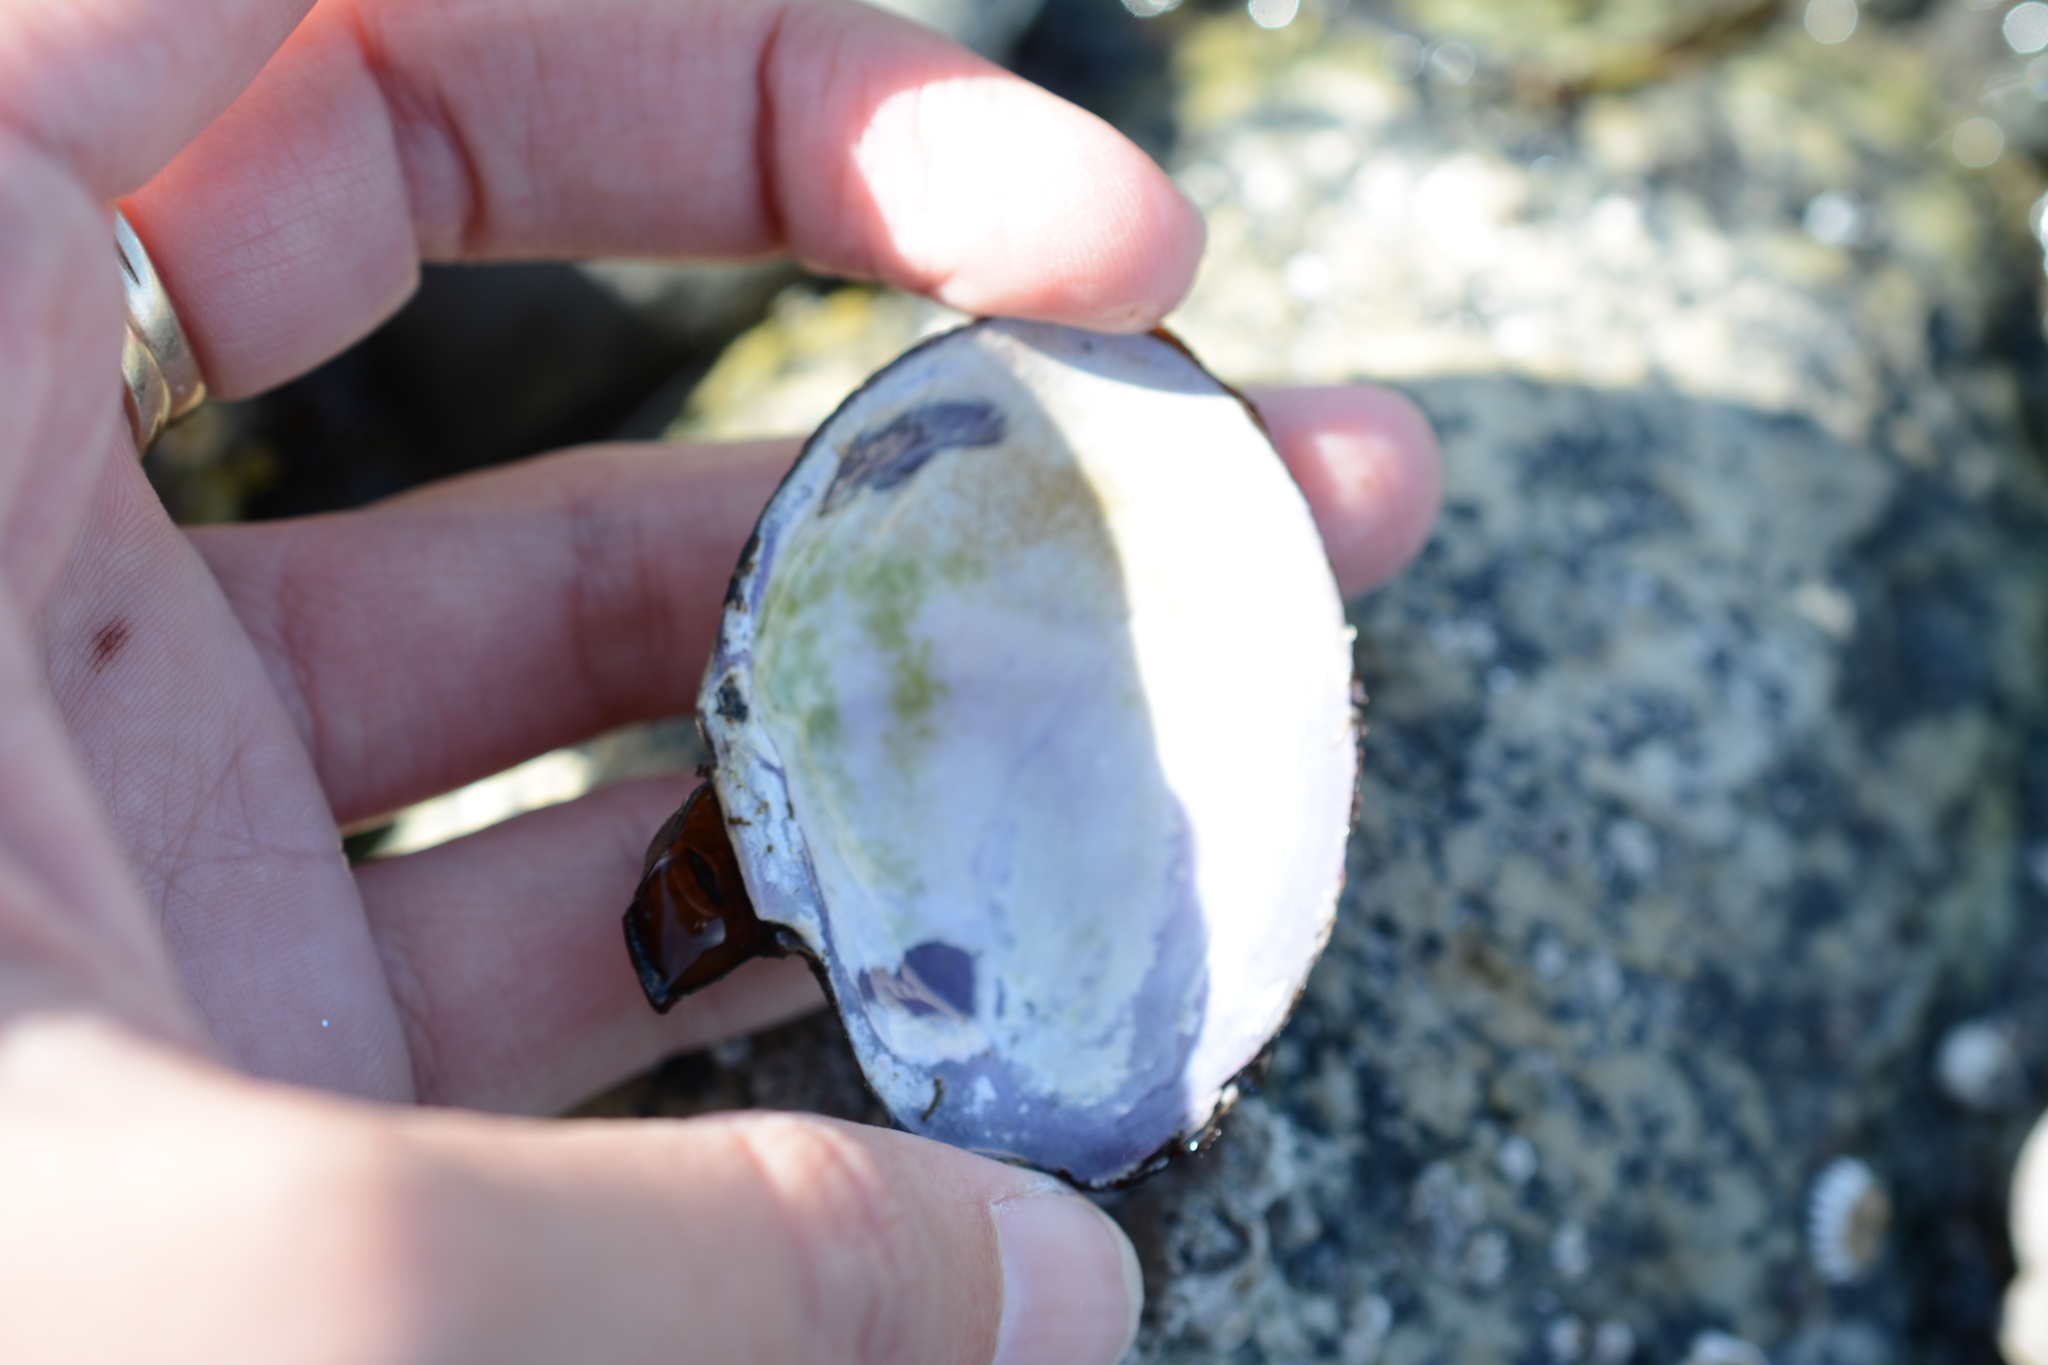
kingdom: Animalia
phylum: Mollusca
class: Bivalvia
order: Cardiida
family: Psammobiidae
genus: Nuttallia
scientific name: Nuttallia obscurata
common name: Purple mahogany-clam
